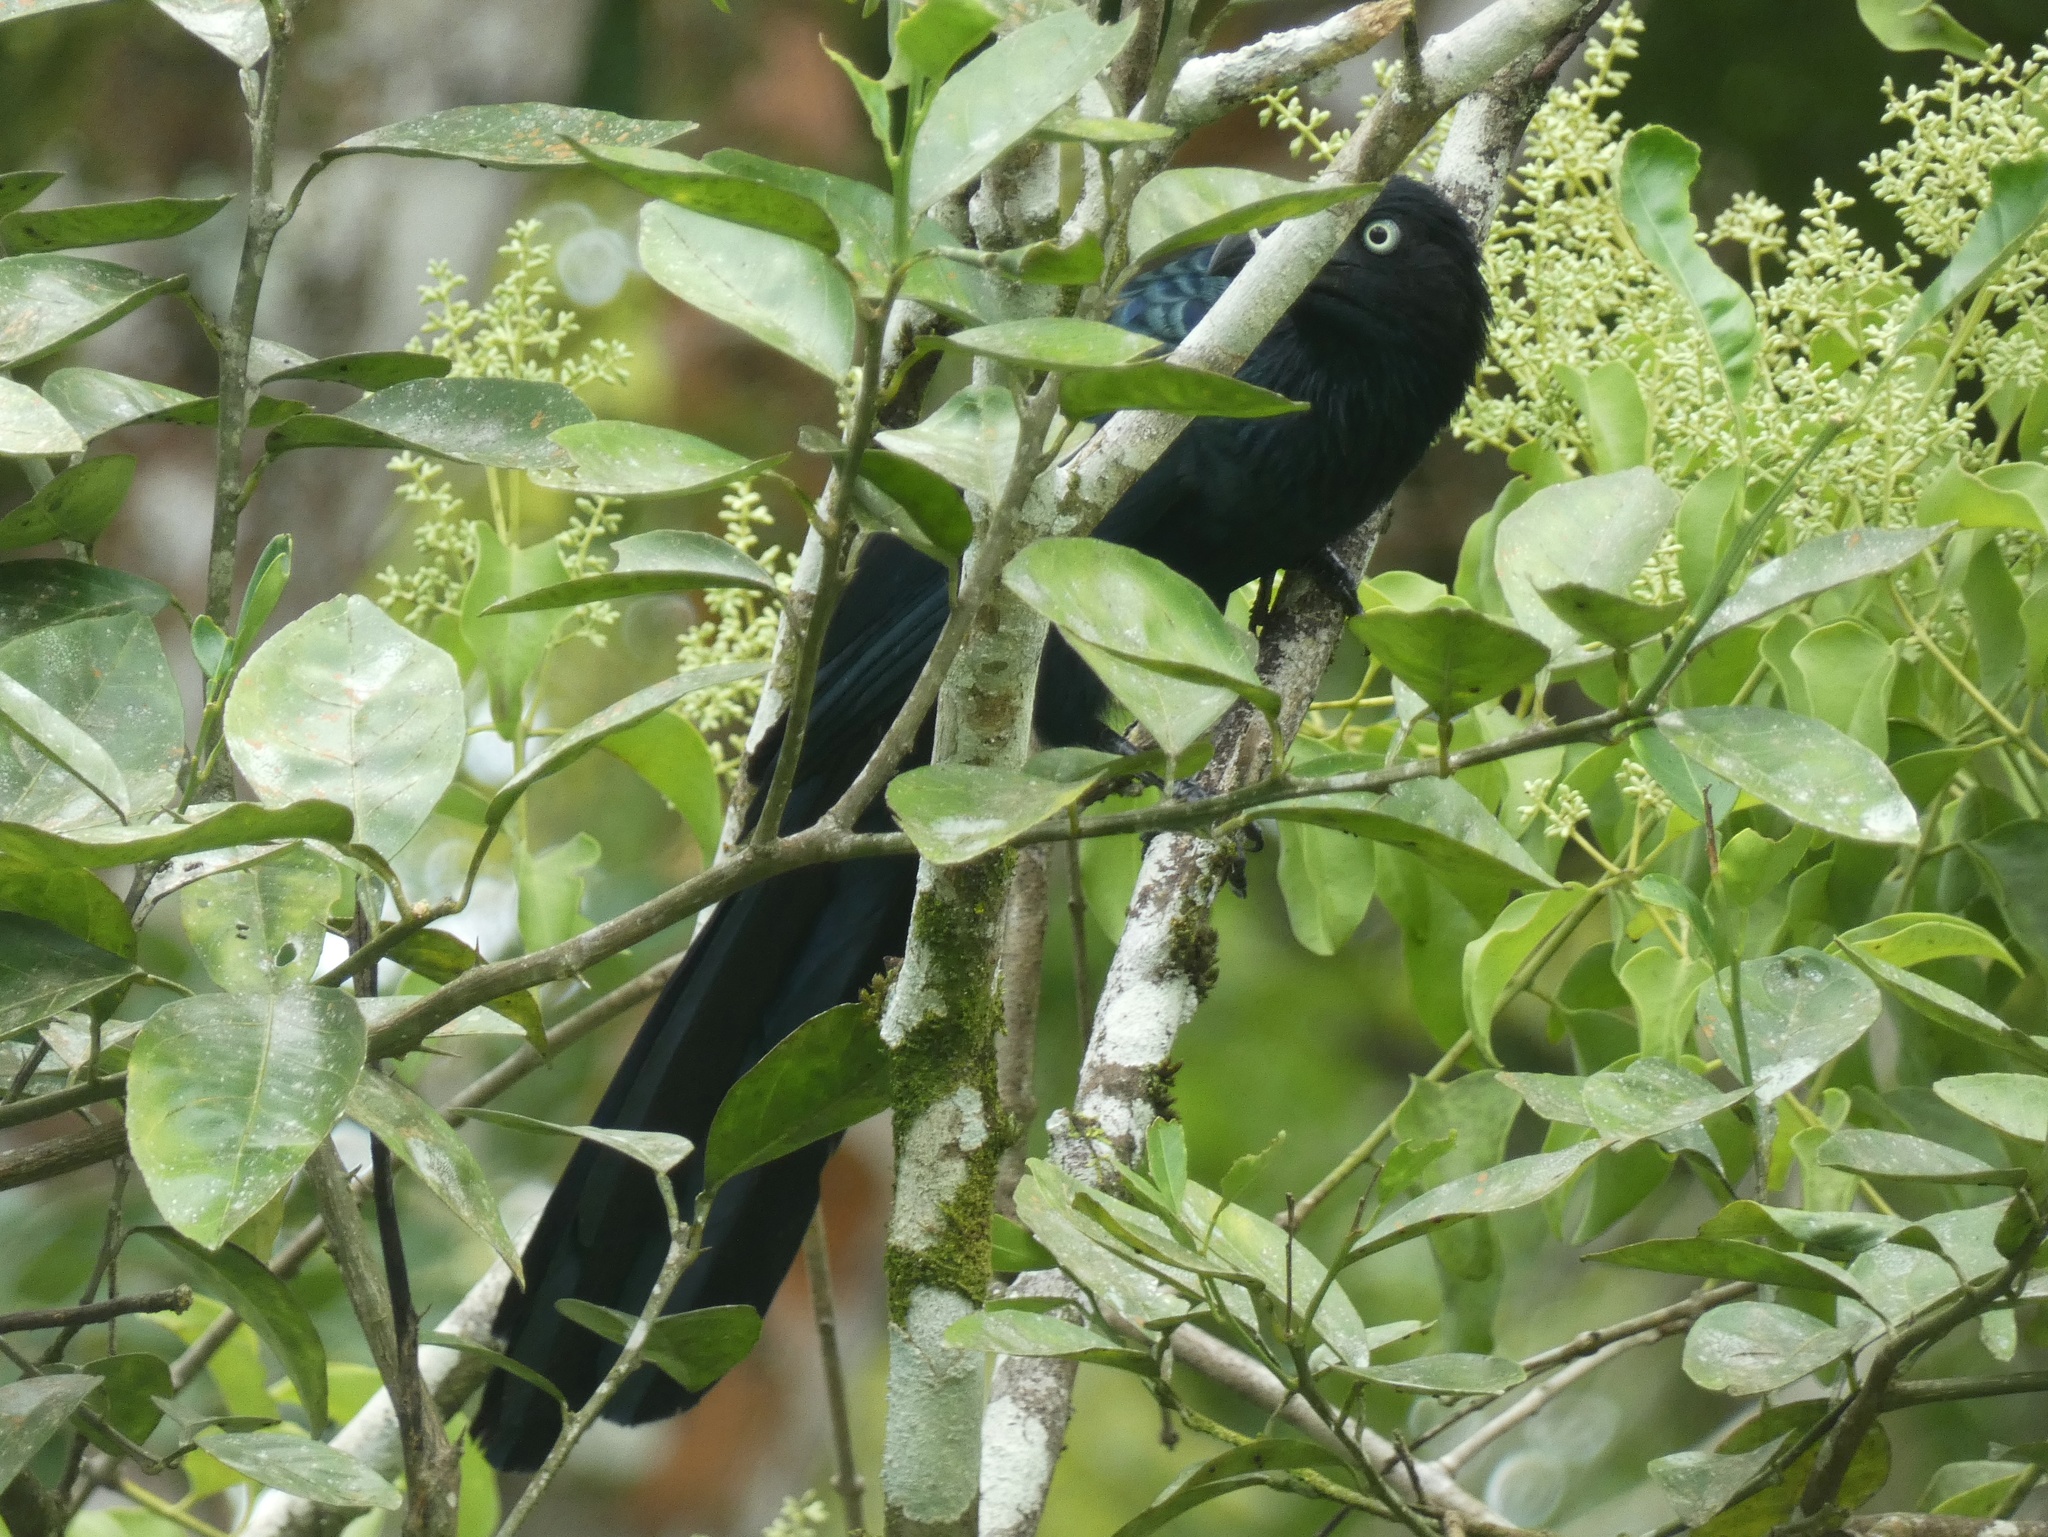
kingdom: Animalia
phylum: Chordata
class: Aves
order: Cuculiformes
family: Cuculidae
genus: Crotophaga
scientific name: Crotophaga major
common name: Greater ani
